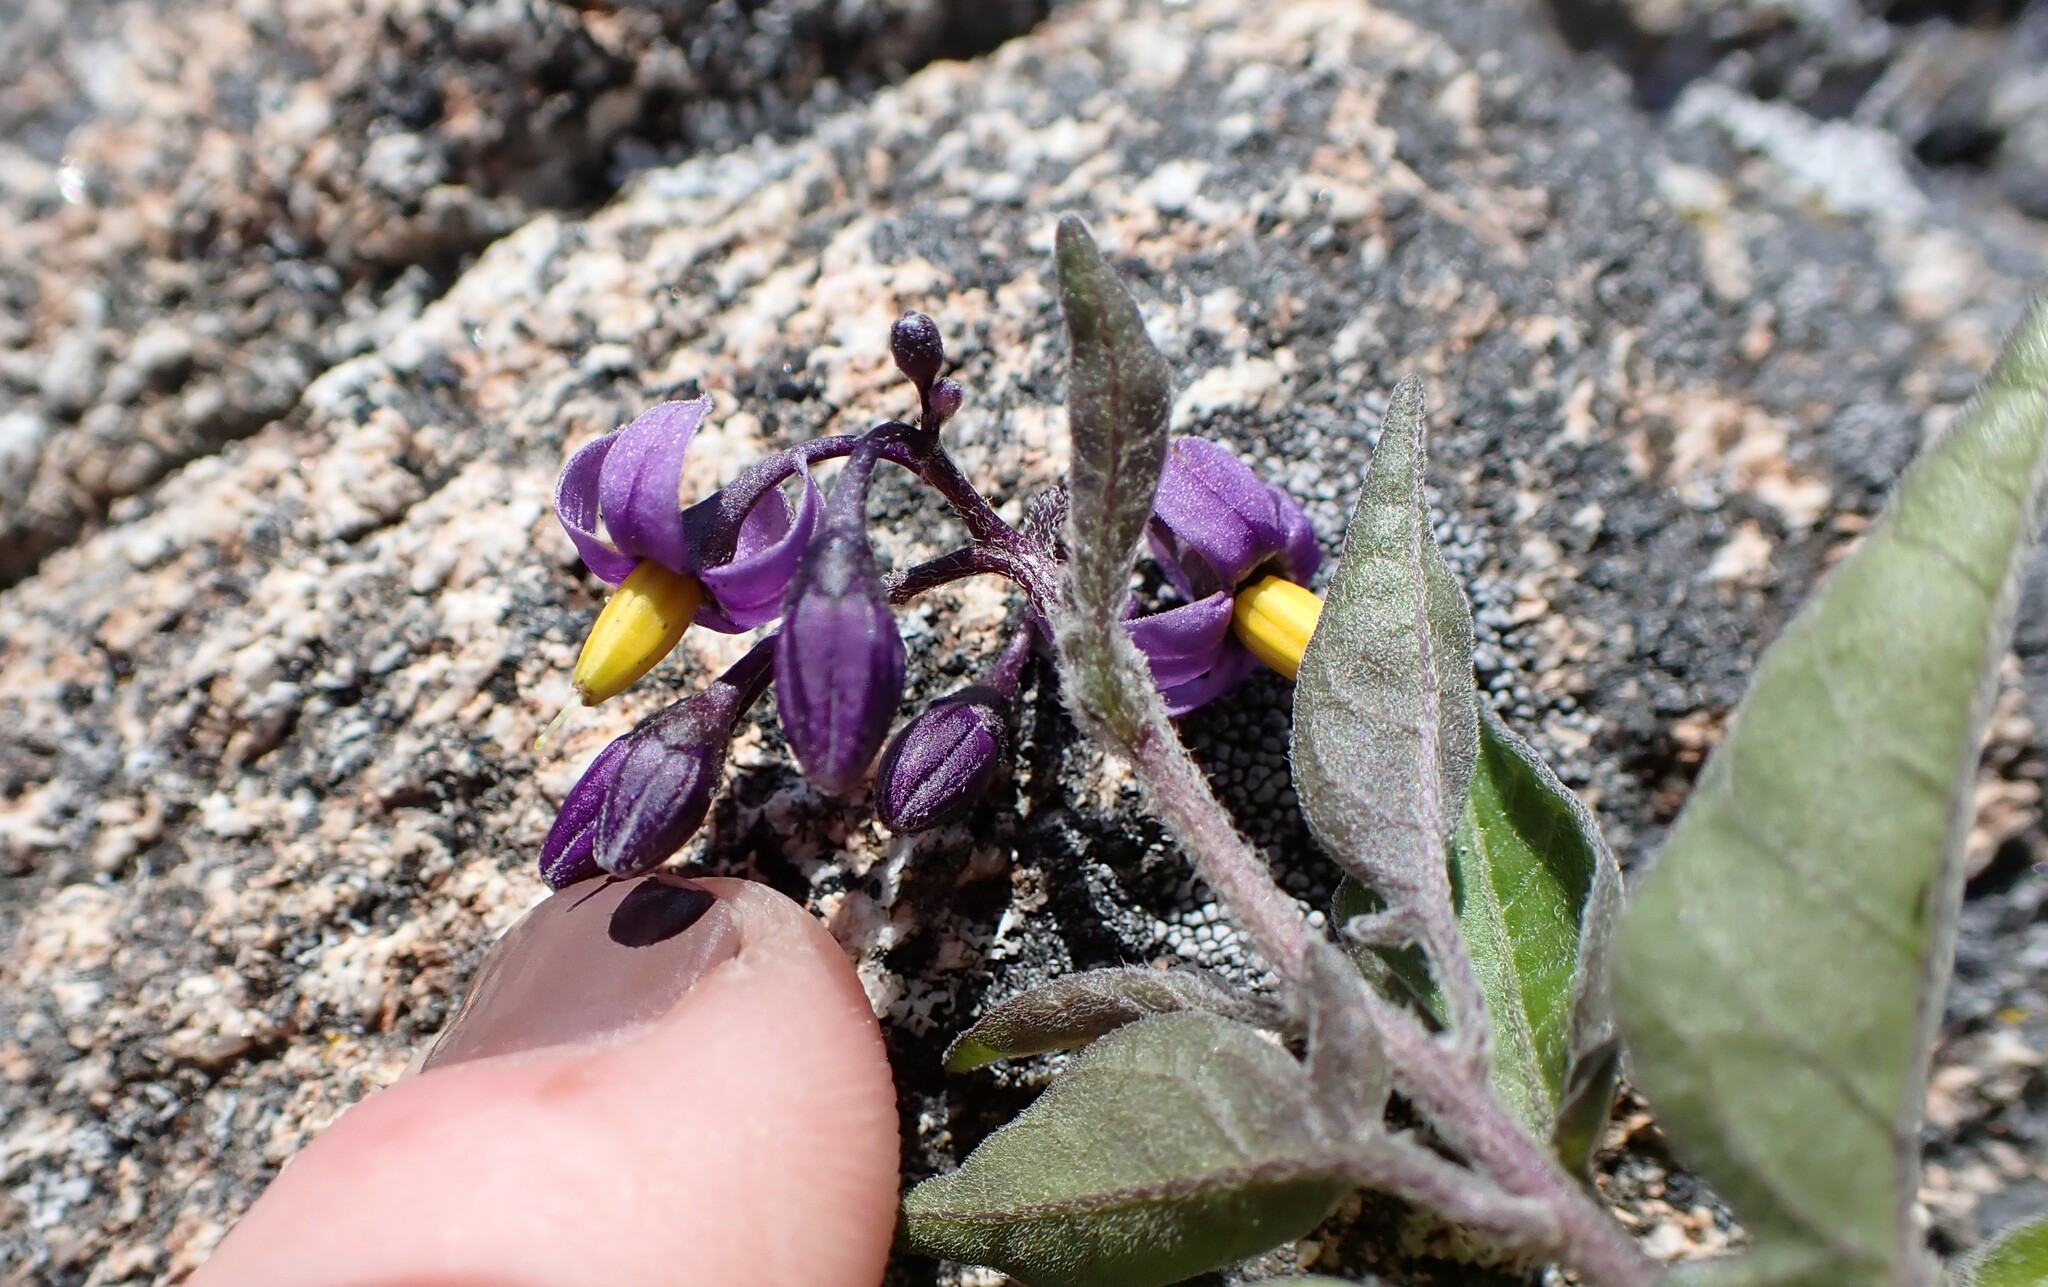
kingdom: Plantae
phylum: Tracheophyta
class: Magnoliopsida
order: Solanales
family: Solanaceae
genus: Solanum
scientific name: Solanum dulcamara
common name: Climbing nightshade
